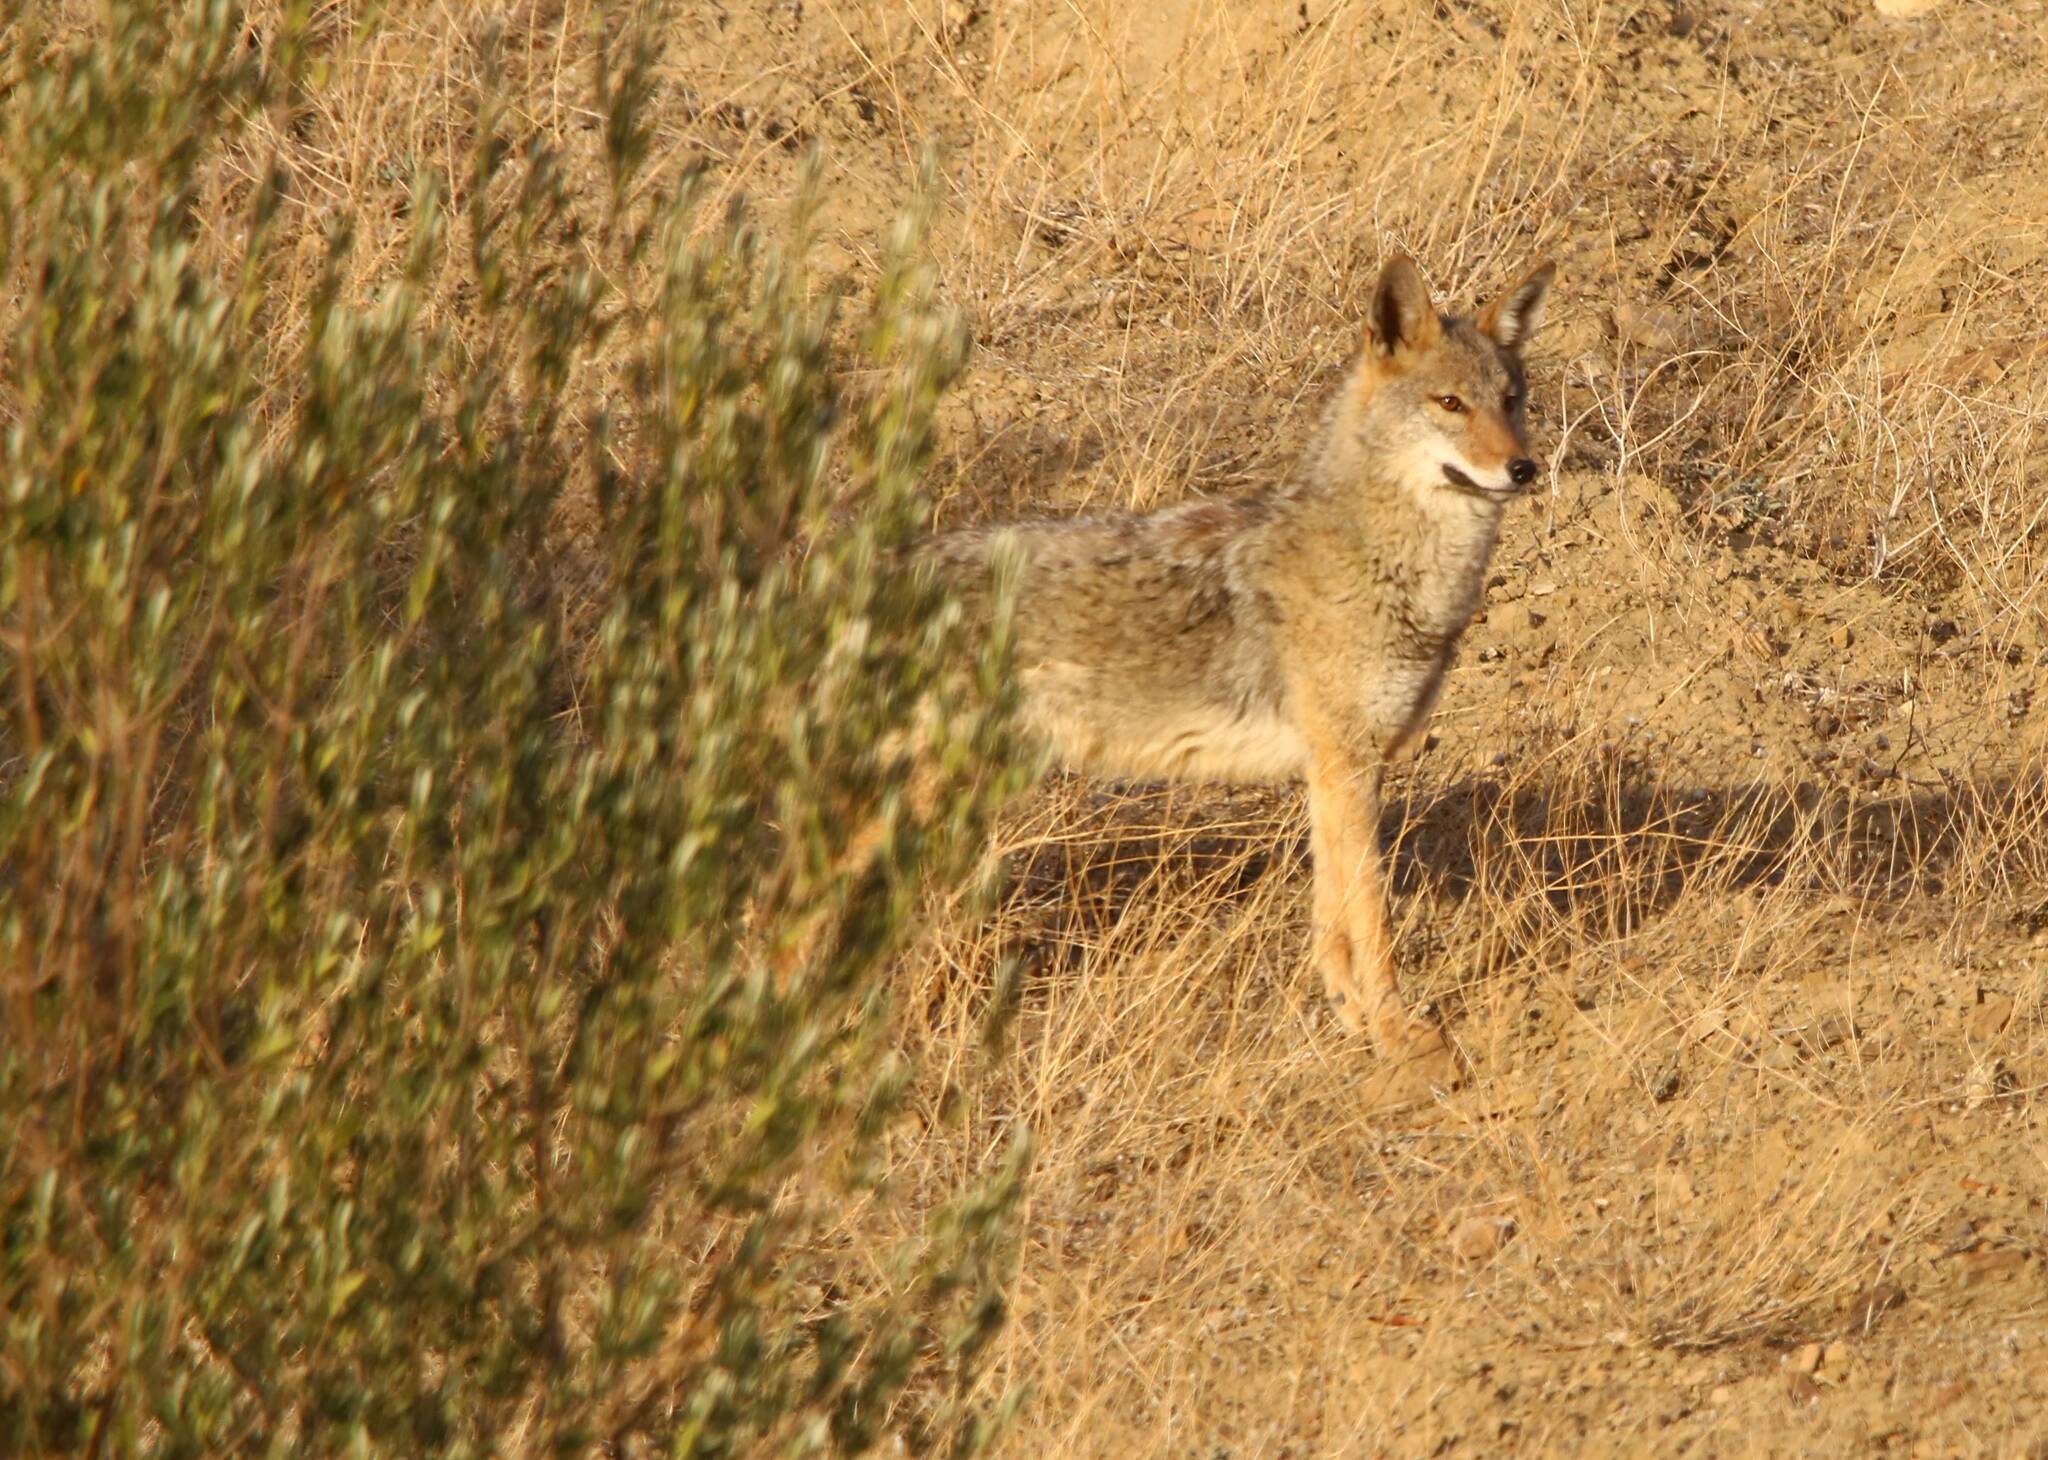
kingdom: Animalia
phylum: Chordata
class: Mammalia
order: Carnivora
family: Canidae
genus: Canis
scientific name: Canis lupaster
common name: African golden wolf
